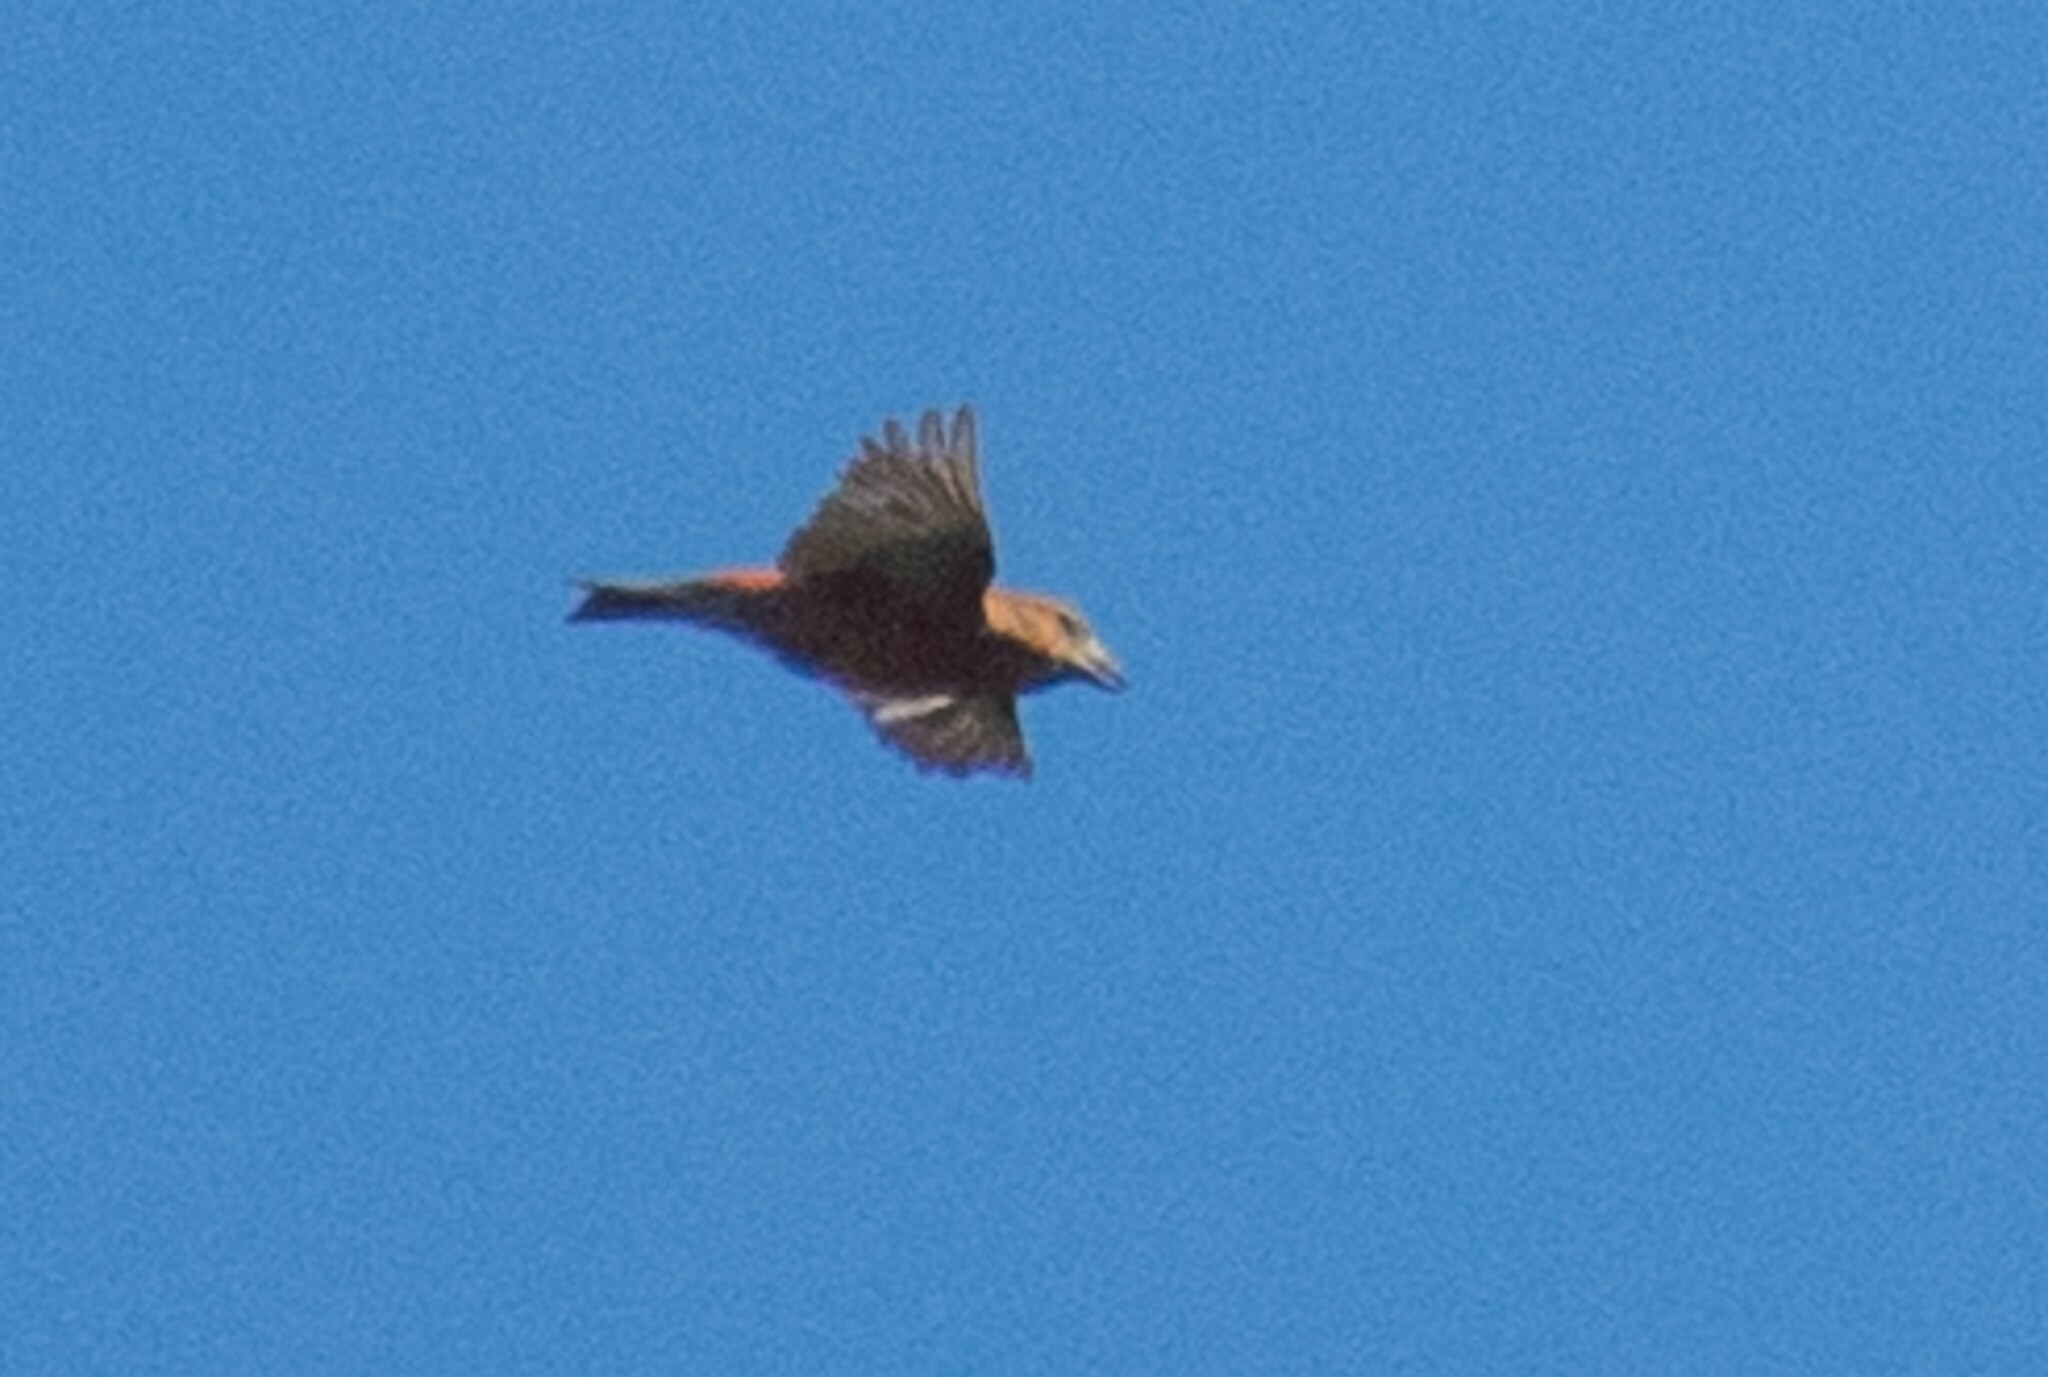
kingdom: Animalia
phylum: Chordata
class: Aves
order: Passeriformes
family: Fringillidae
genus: Loxia
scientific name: Loxia curvirostra
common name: Red crossbill
